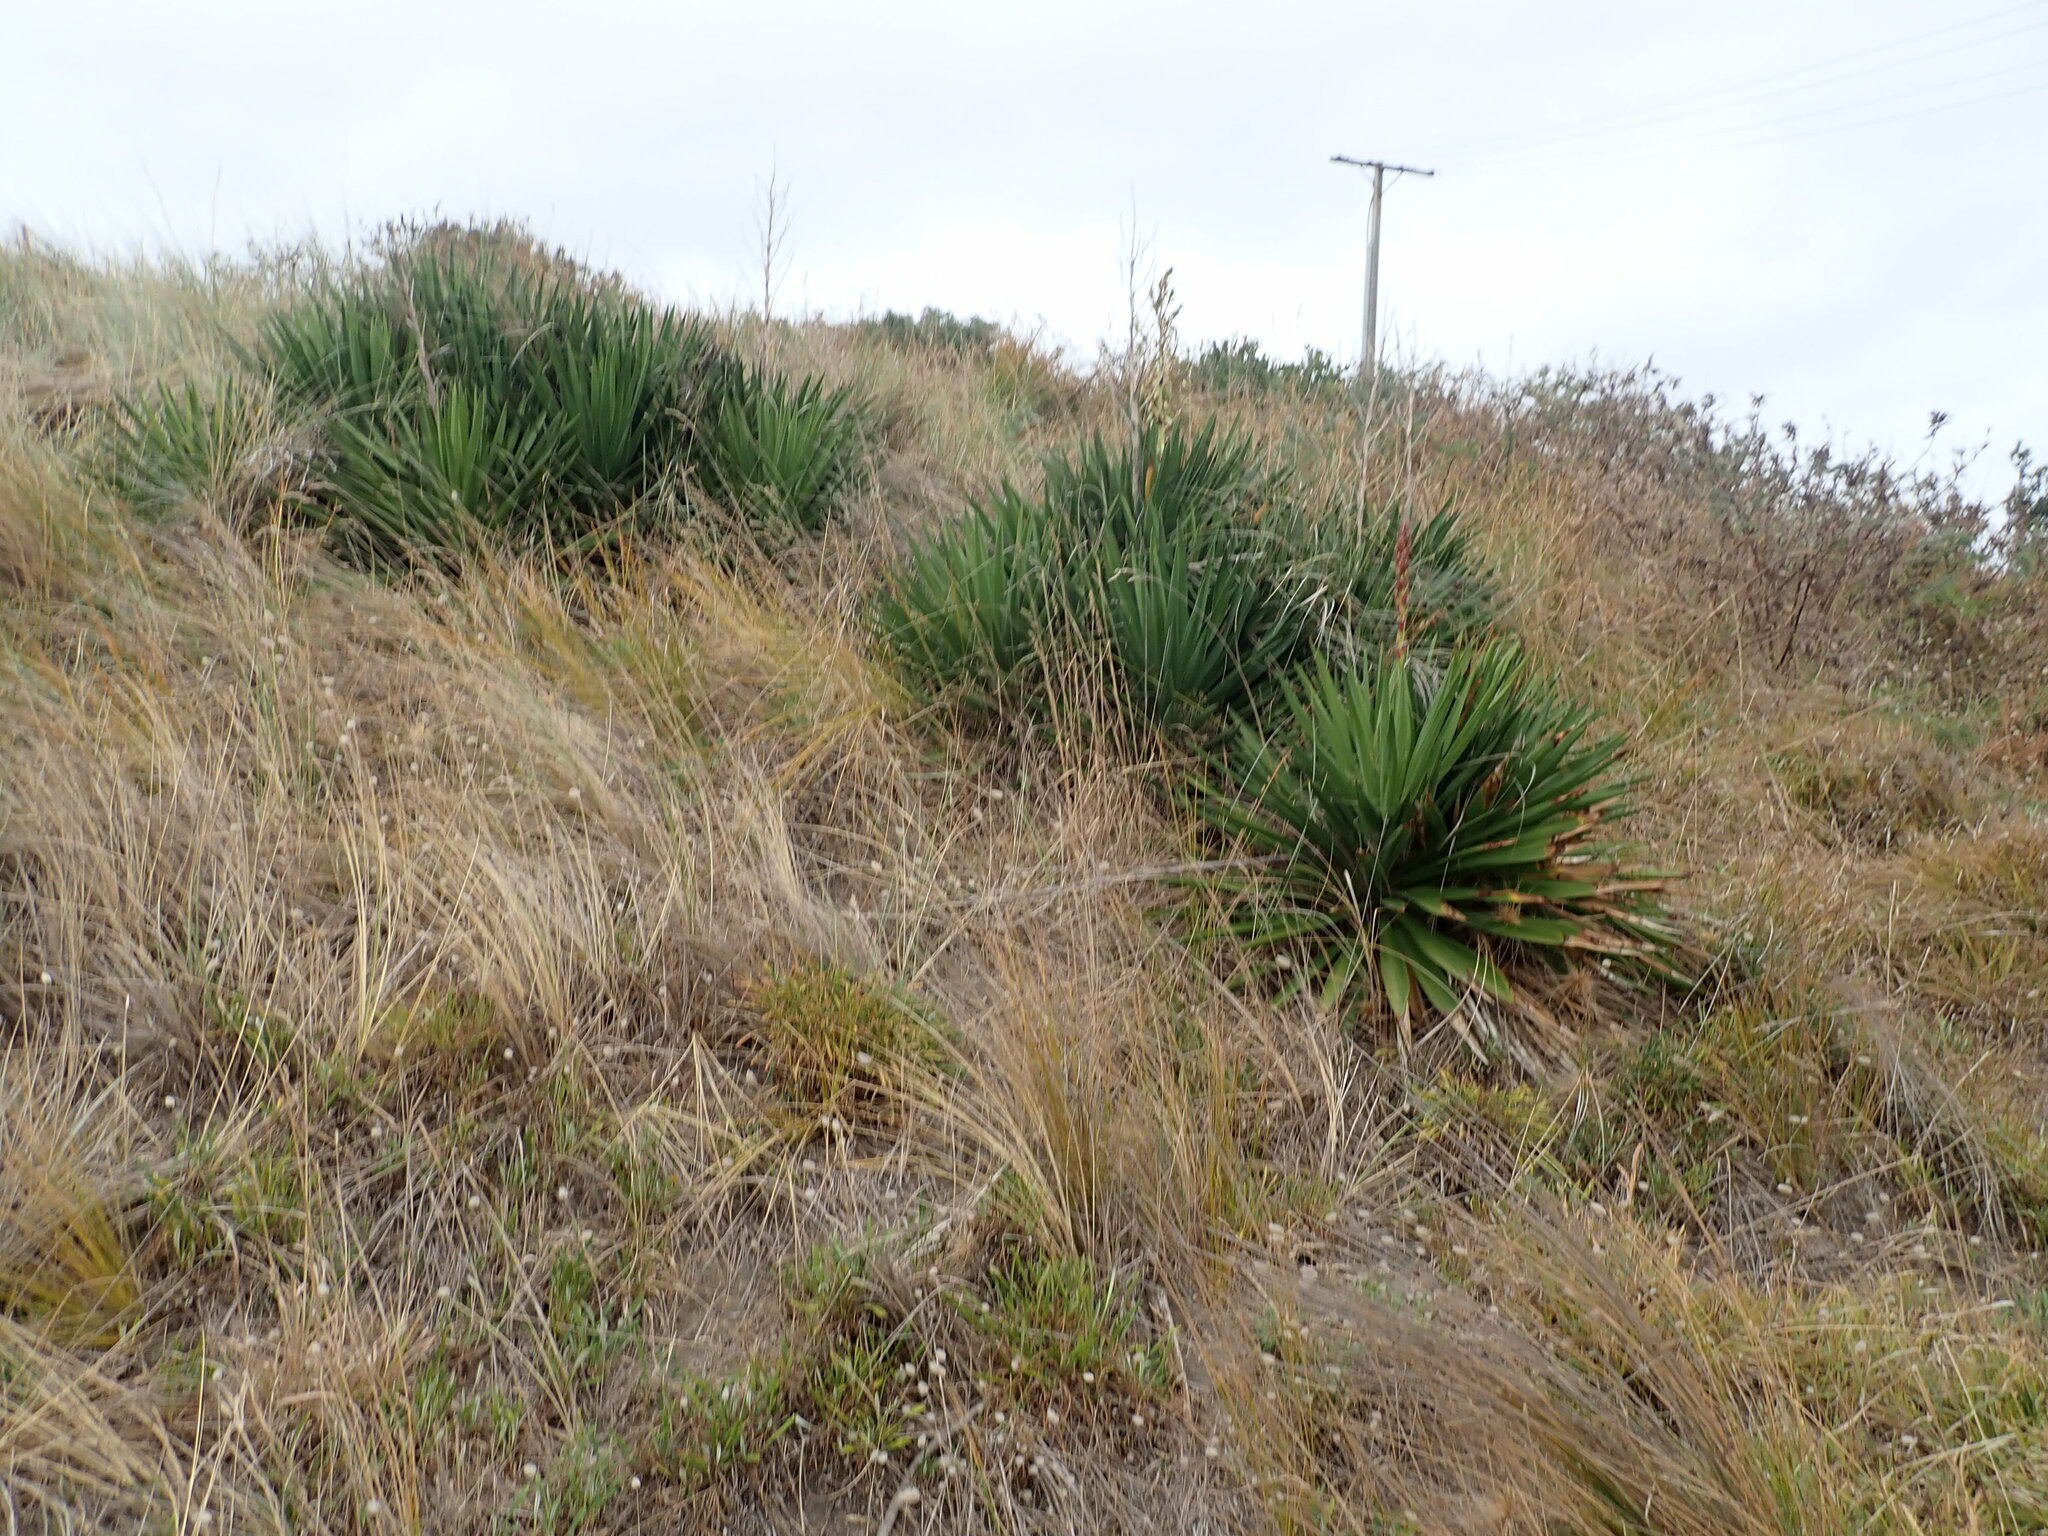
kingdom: Plantae
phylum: Tracheophyta
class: Liliopsida
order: Asparagales
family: Asparagaceae
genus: Yucca
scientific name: Yucca gloriosa
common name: Spanish-dagger
